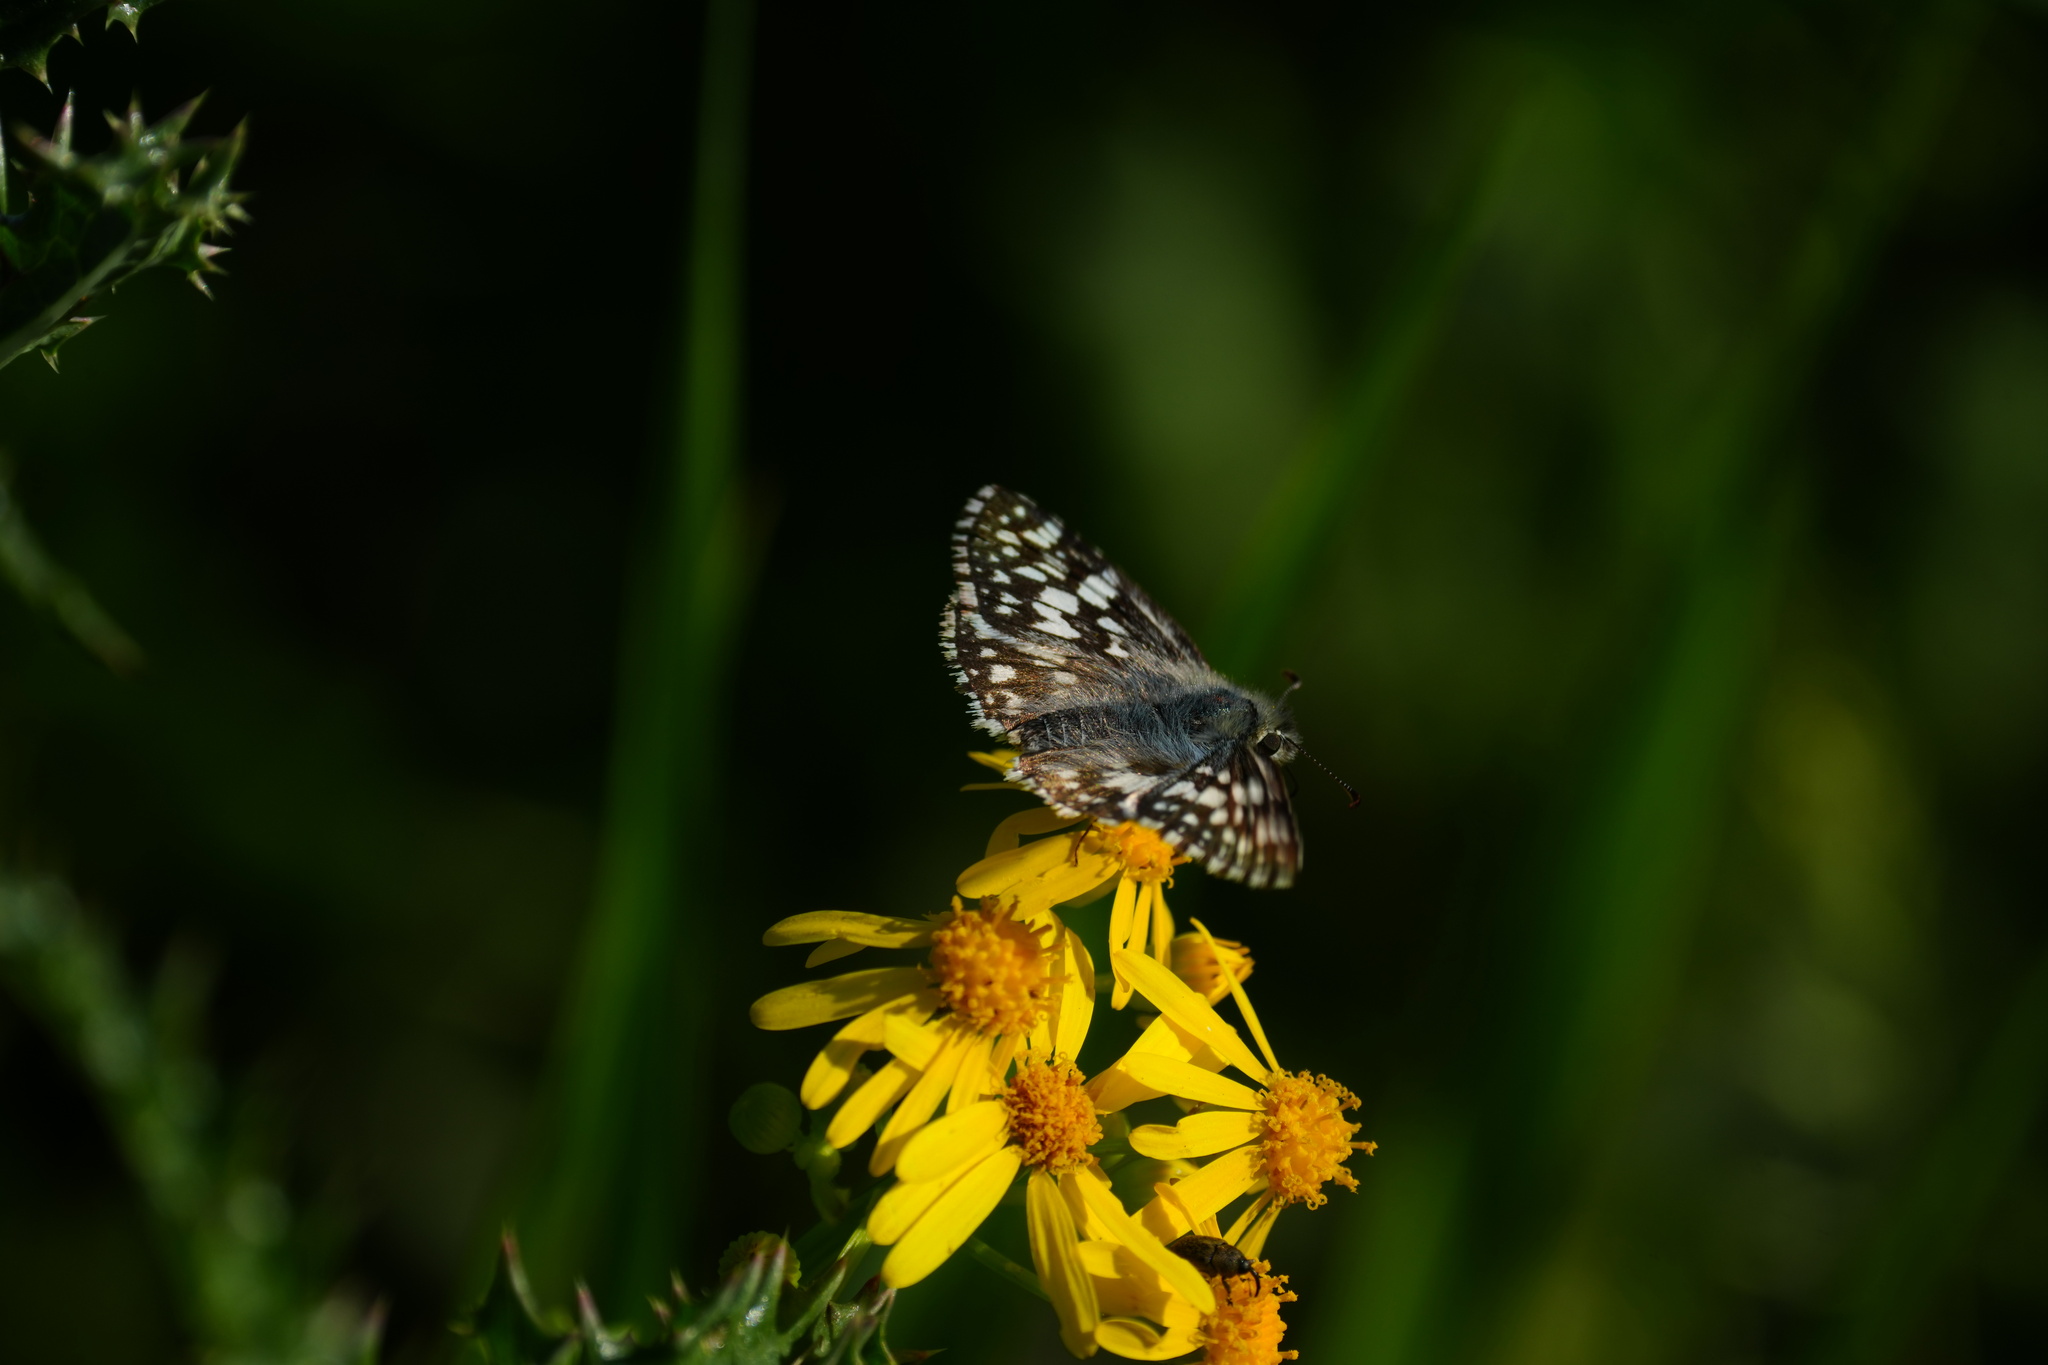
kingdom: Animalia
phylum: Arthropoda
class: Insecta
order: Lepidoptera
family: Hesperiidae
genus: Burnsius
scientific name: Burnsius albezens
